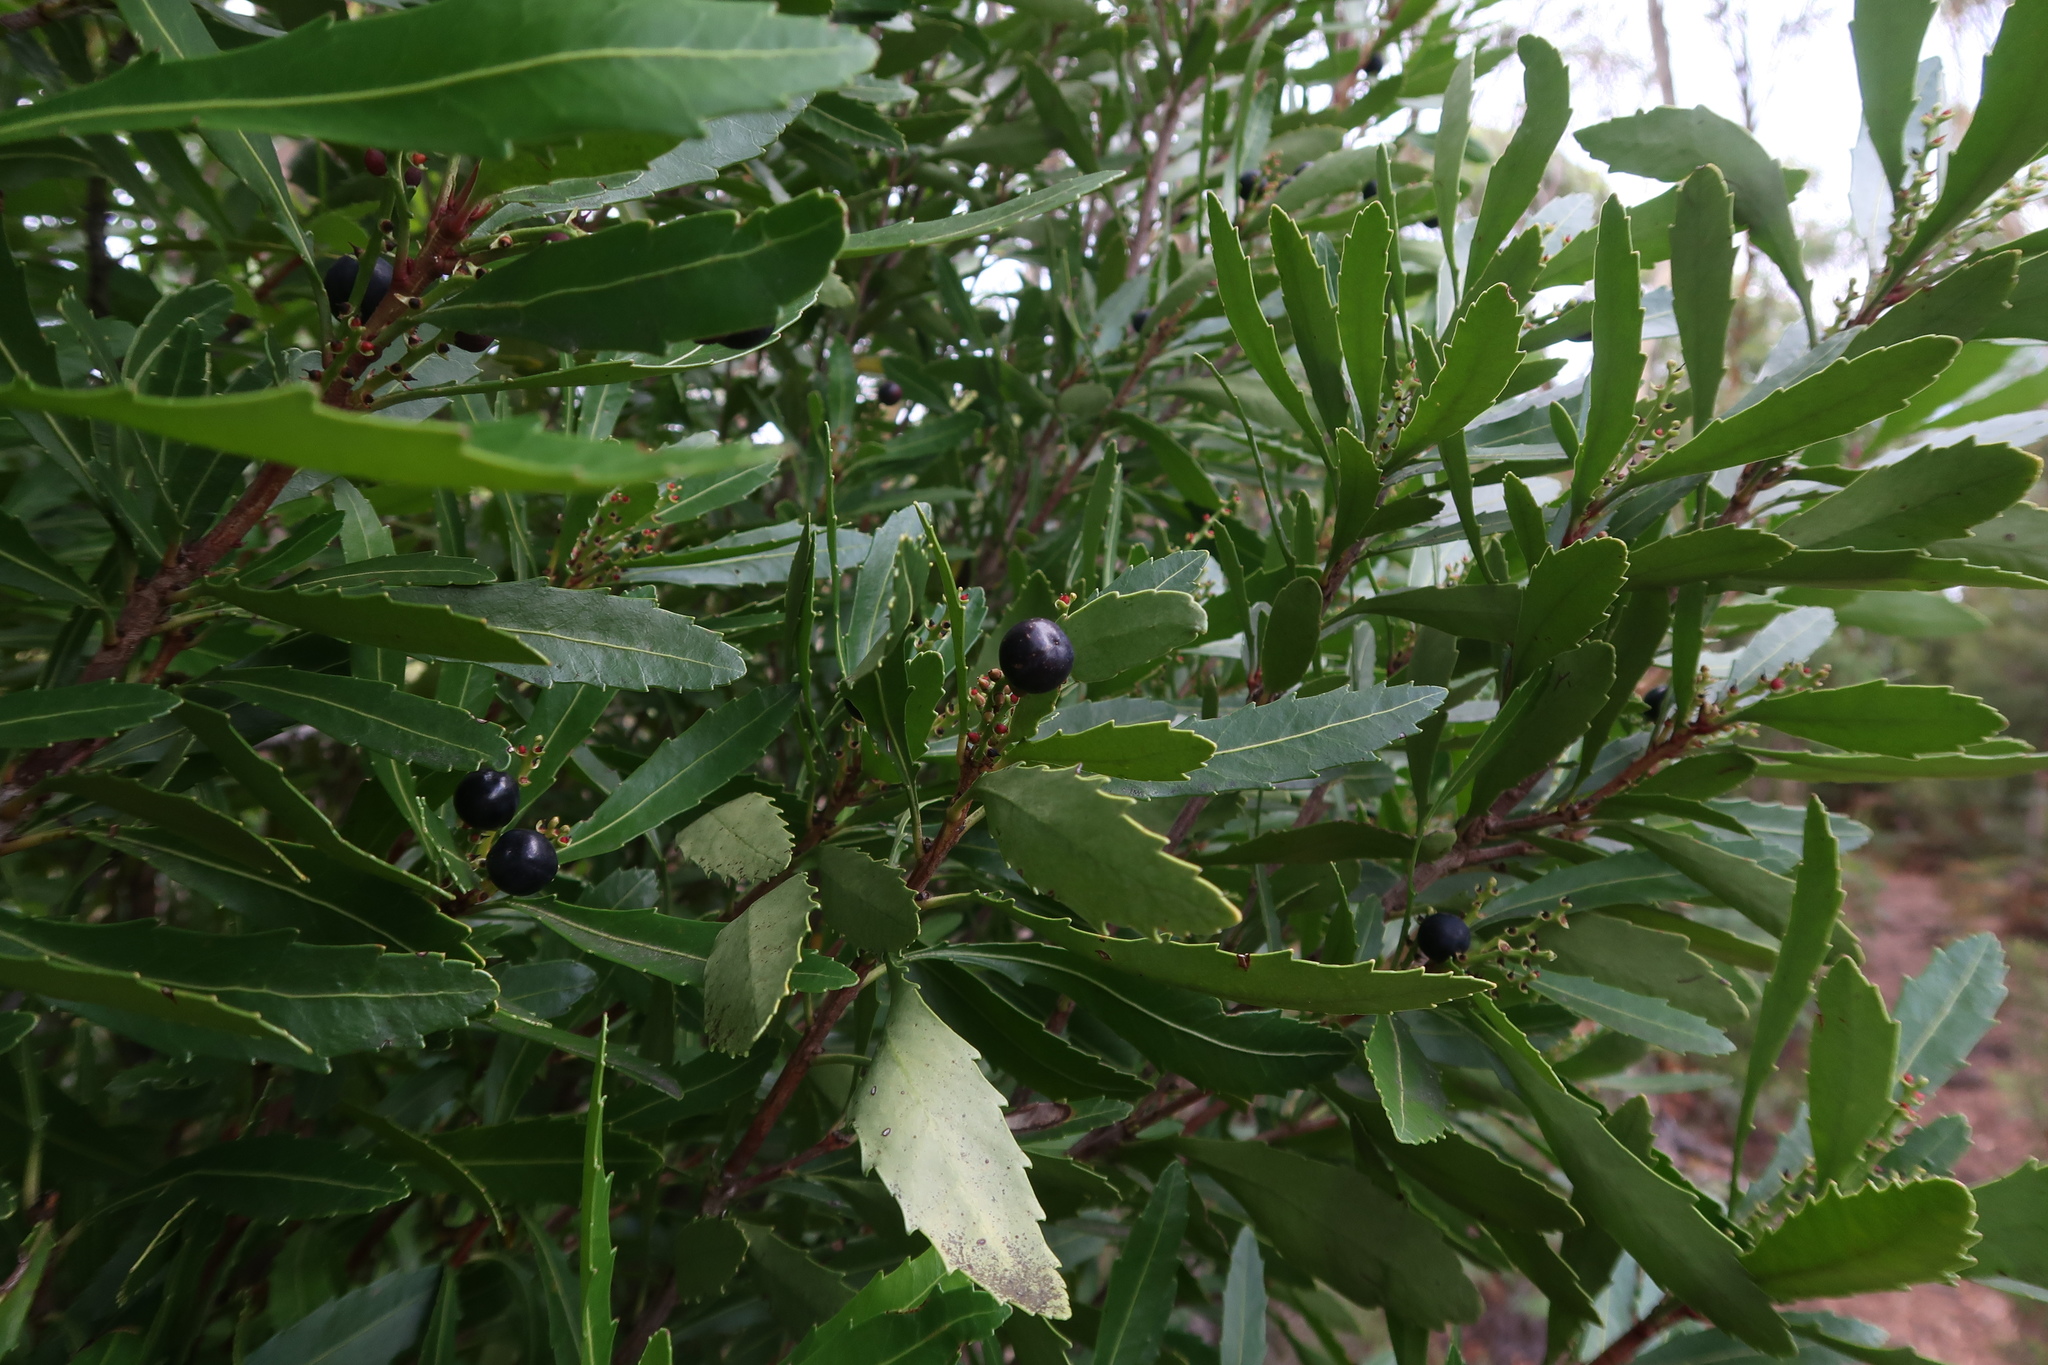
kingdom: Plantae
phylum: Tracheophyta
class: Magnoliopsida
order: Proteales
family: Proteaceae
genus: Cenarrhenes
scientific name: Cenarrhenes nitida
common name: Native plum
